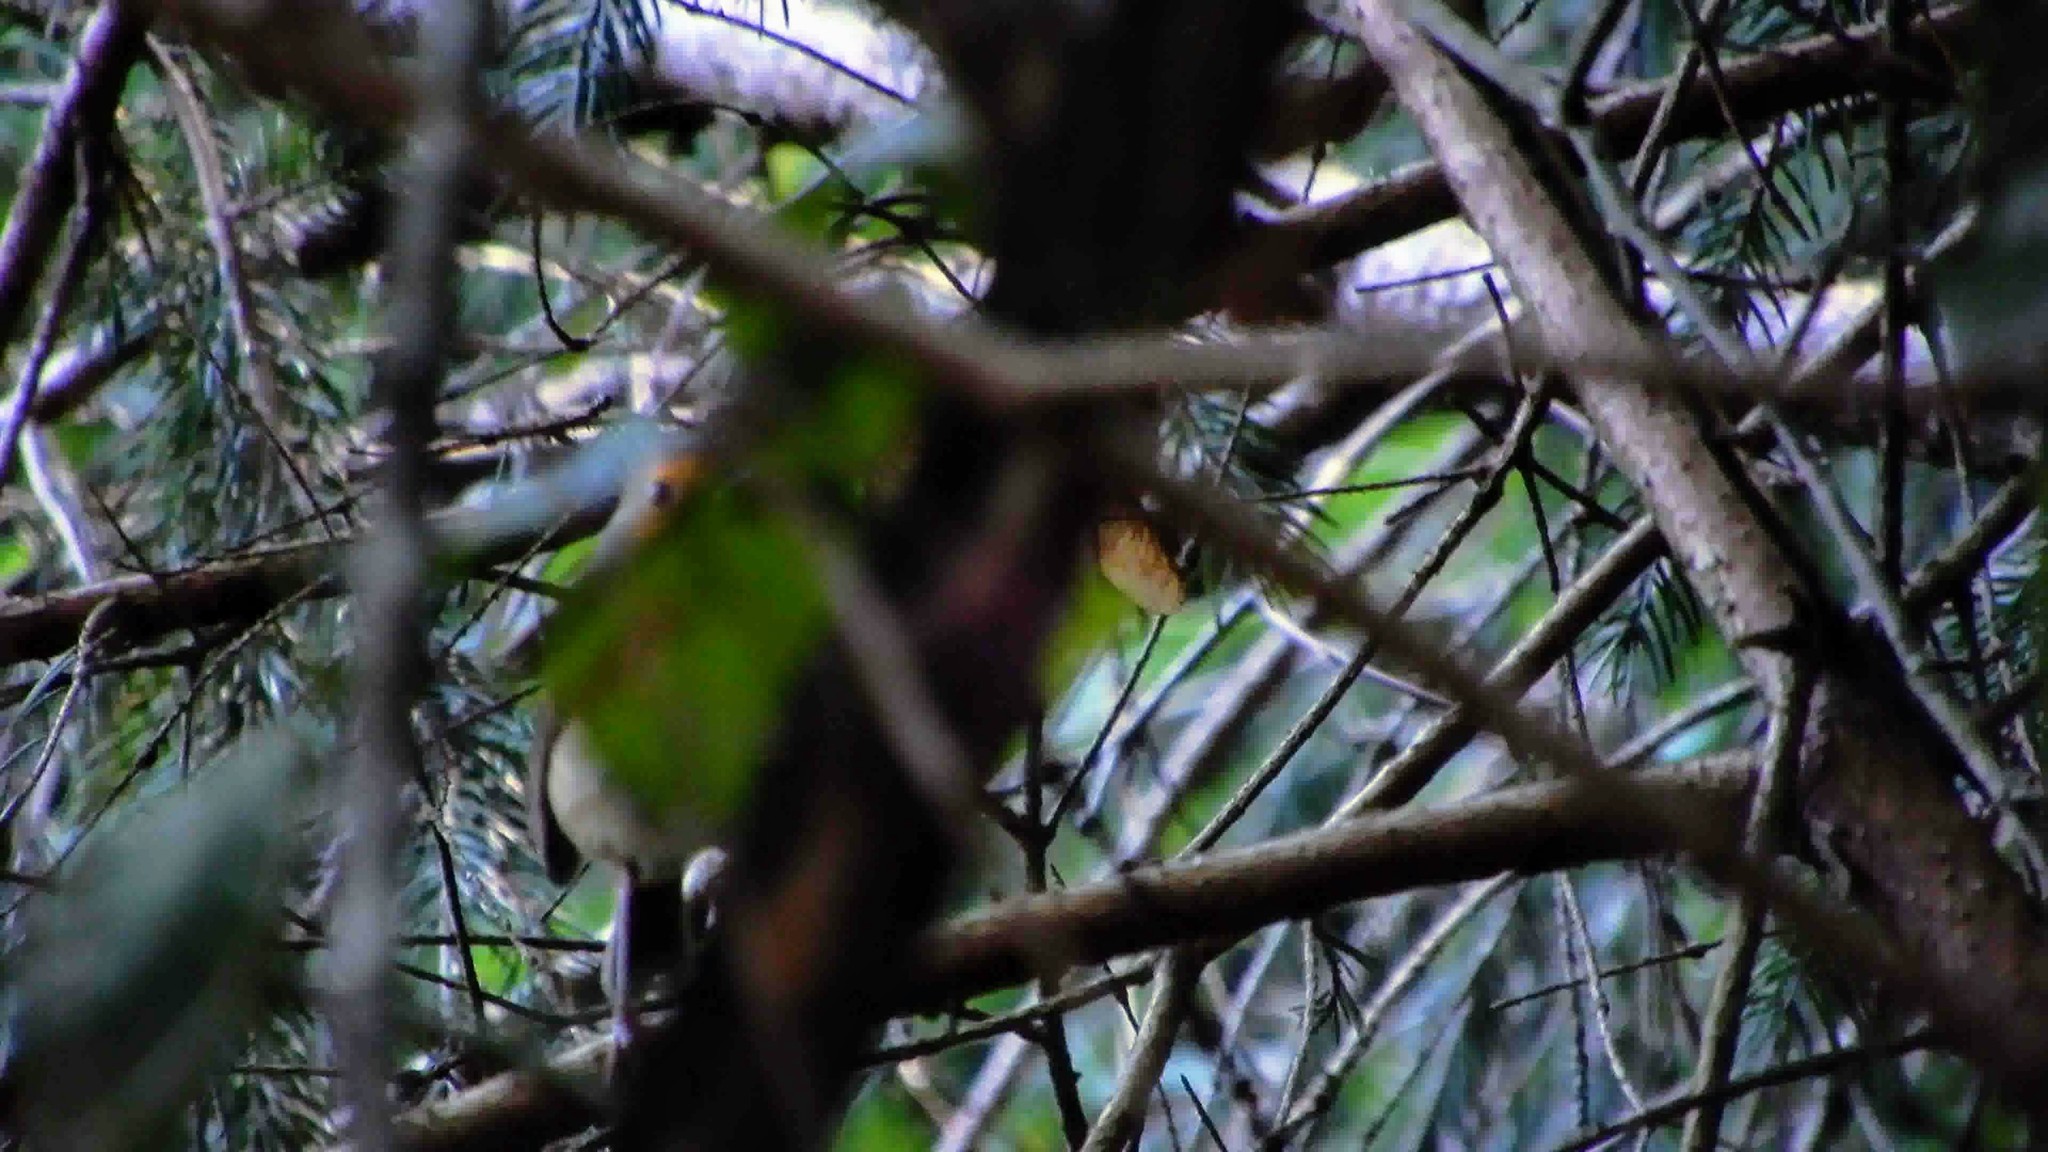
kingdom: Animalia
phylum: Chordata
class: Aves
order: Passeriformes
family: Muscicapidae
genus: Erithacus
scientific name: Erithacus rubecula
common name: European robin
